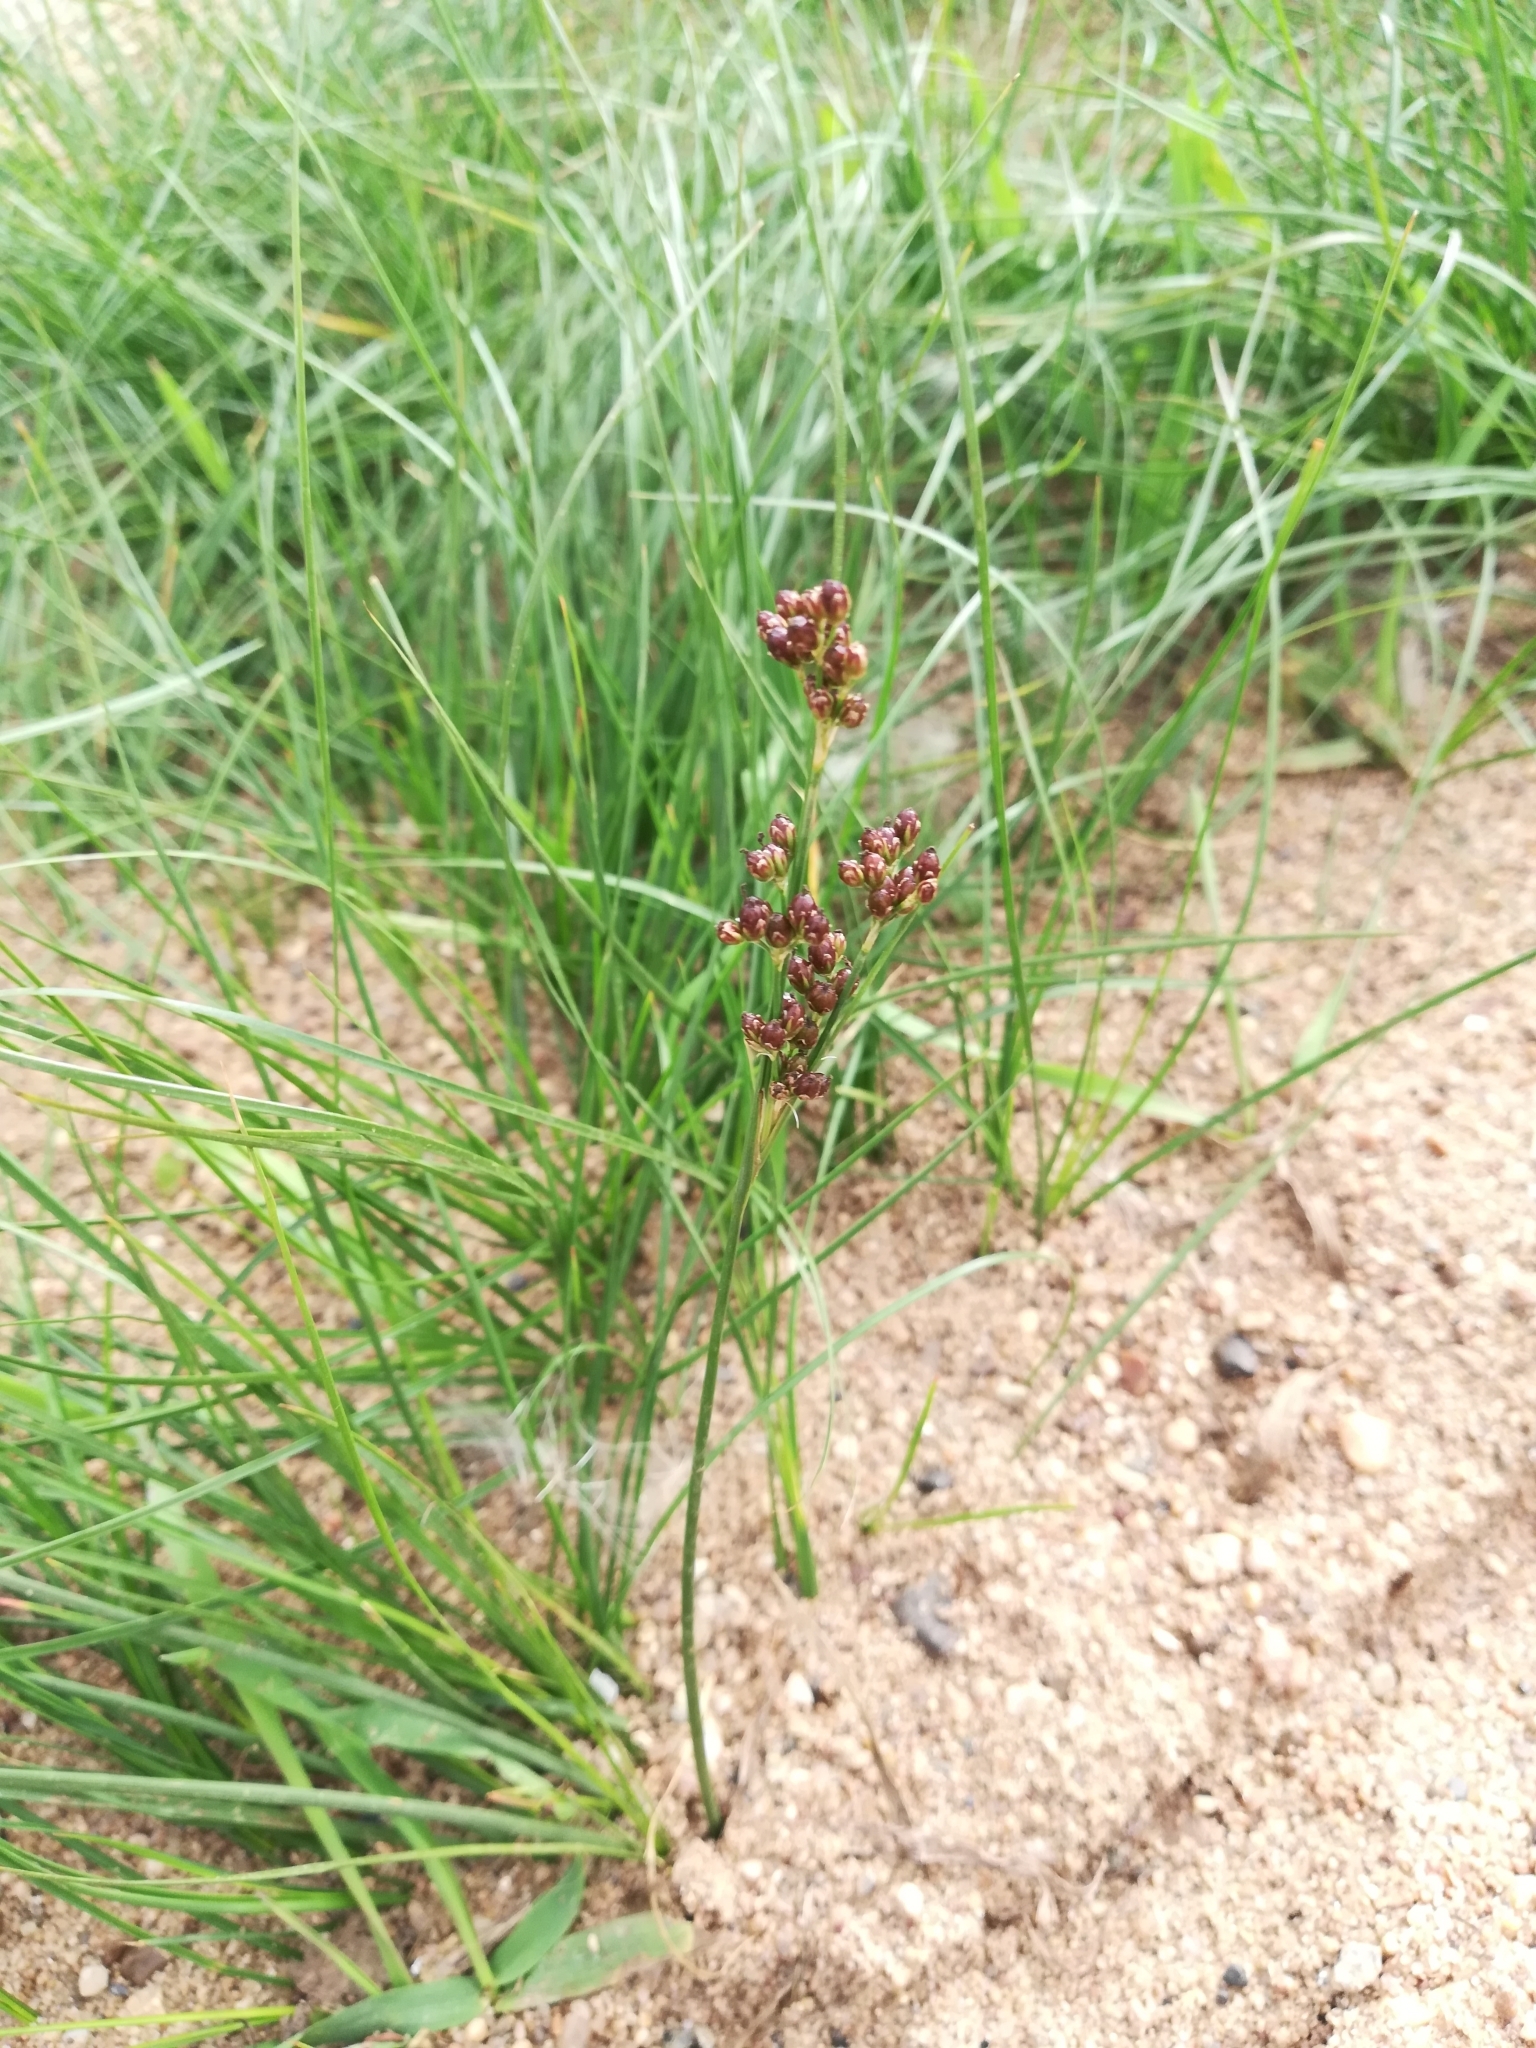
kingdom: Plantae
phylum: Tracheophyta
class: Liliopsida
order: Poales
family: Juncaceae
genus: Juncus
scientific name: Juncus compressus
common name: Round-fruited rush
